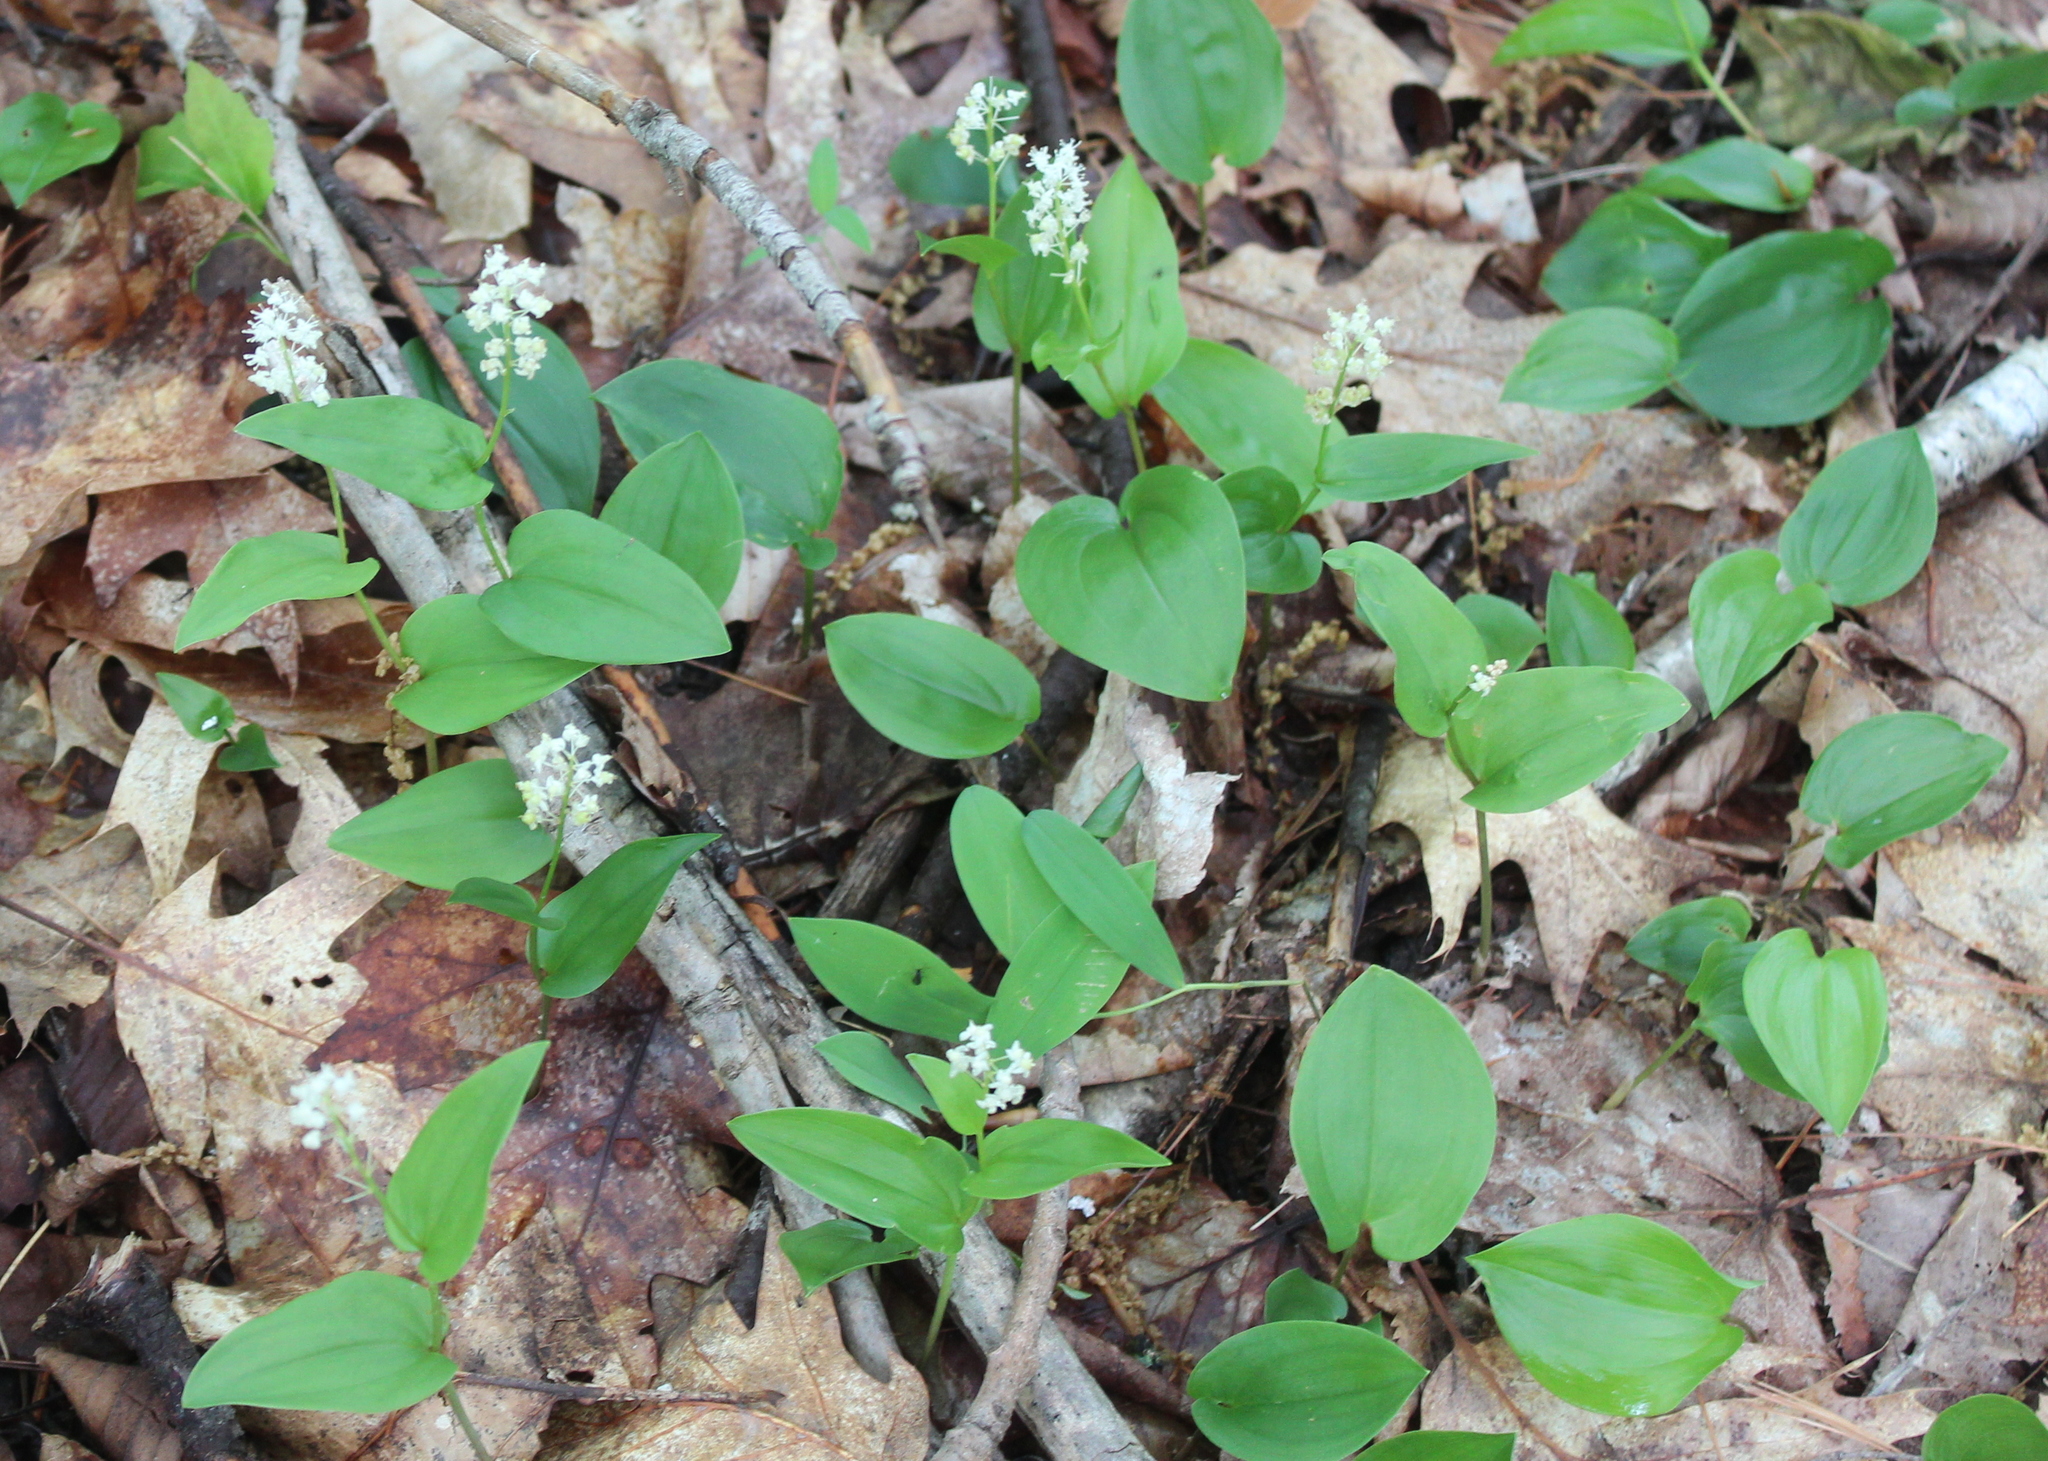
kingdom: Plantae
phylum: Tracheophyta
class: Liliopsida
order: Asparagales
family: Asparagaceae
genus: Maianthemum
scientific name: Maianthemum canadense
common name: False lily-of-the-valley
